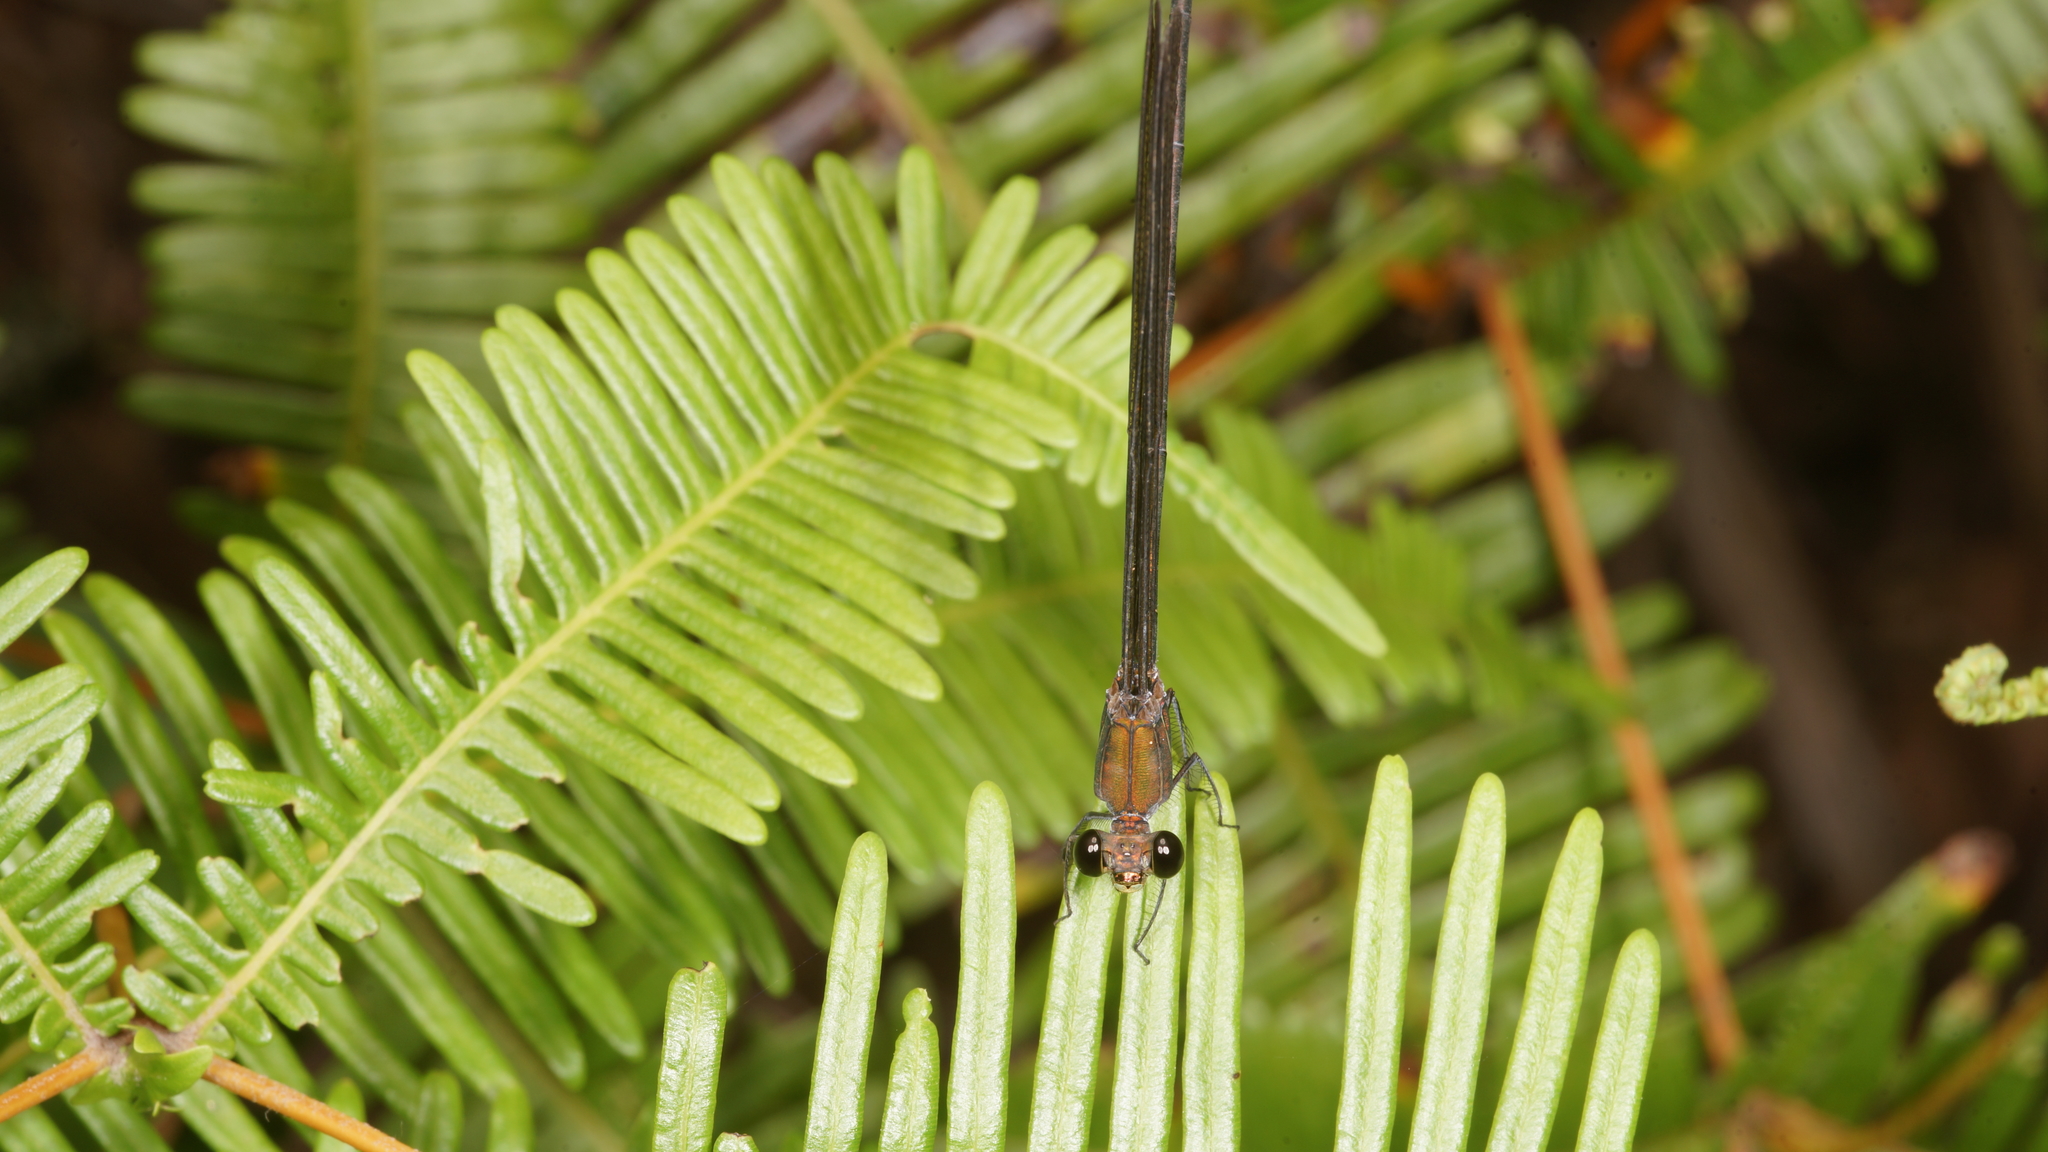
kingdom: Animalia
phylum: Arthropoda
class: Insecta
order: Odonata
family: Calopterygidae
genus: Vestalis
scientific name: Vestalis gracilis
